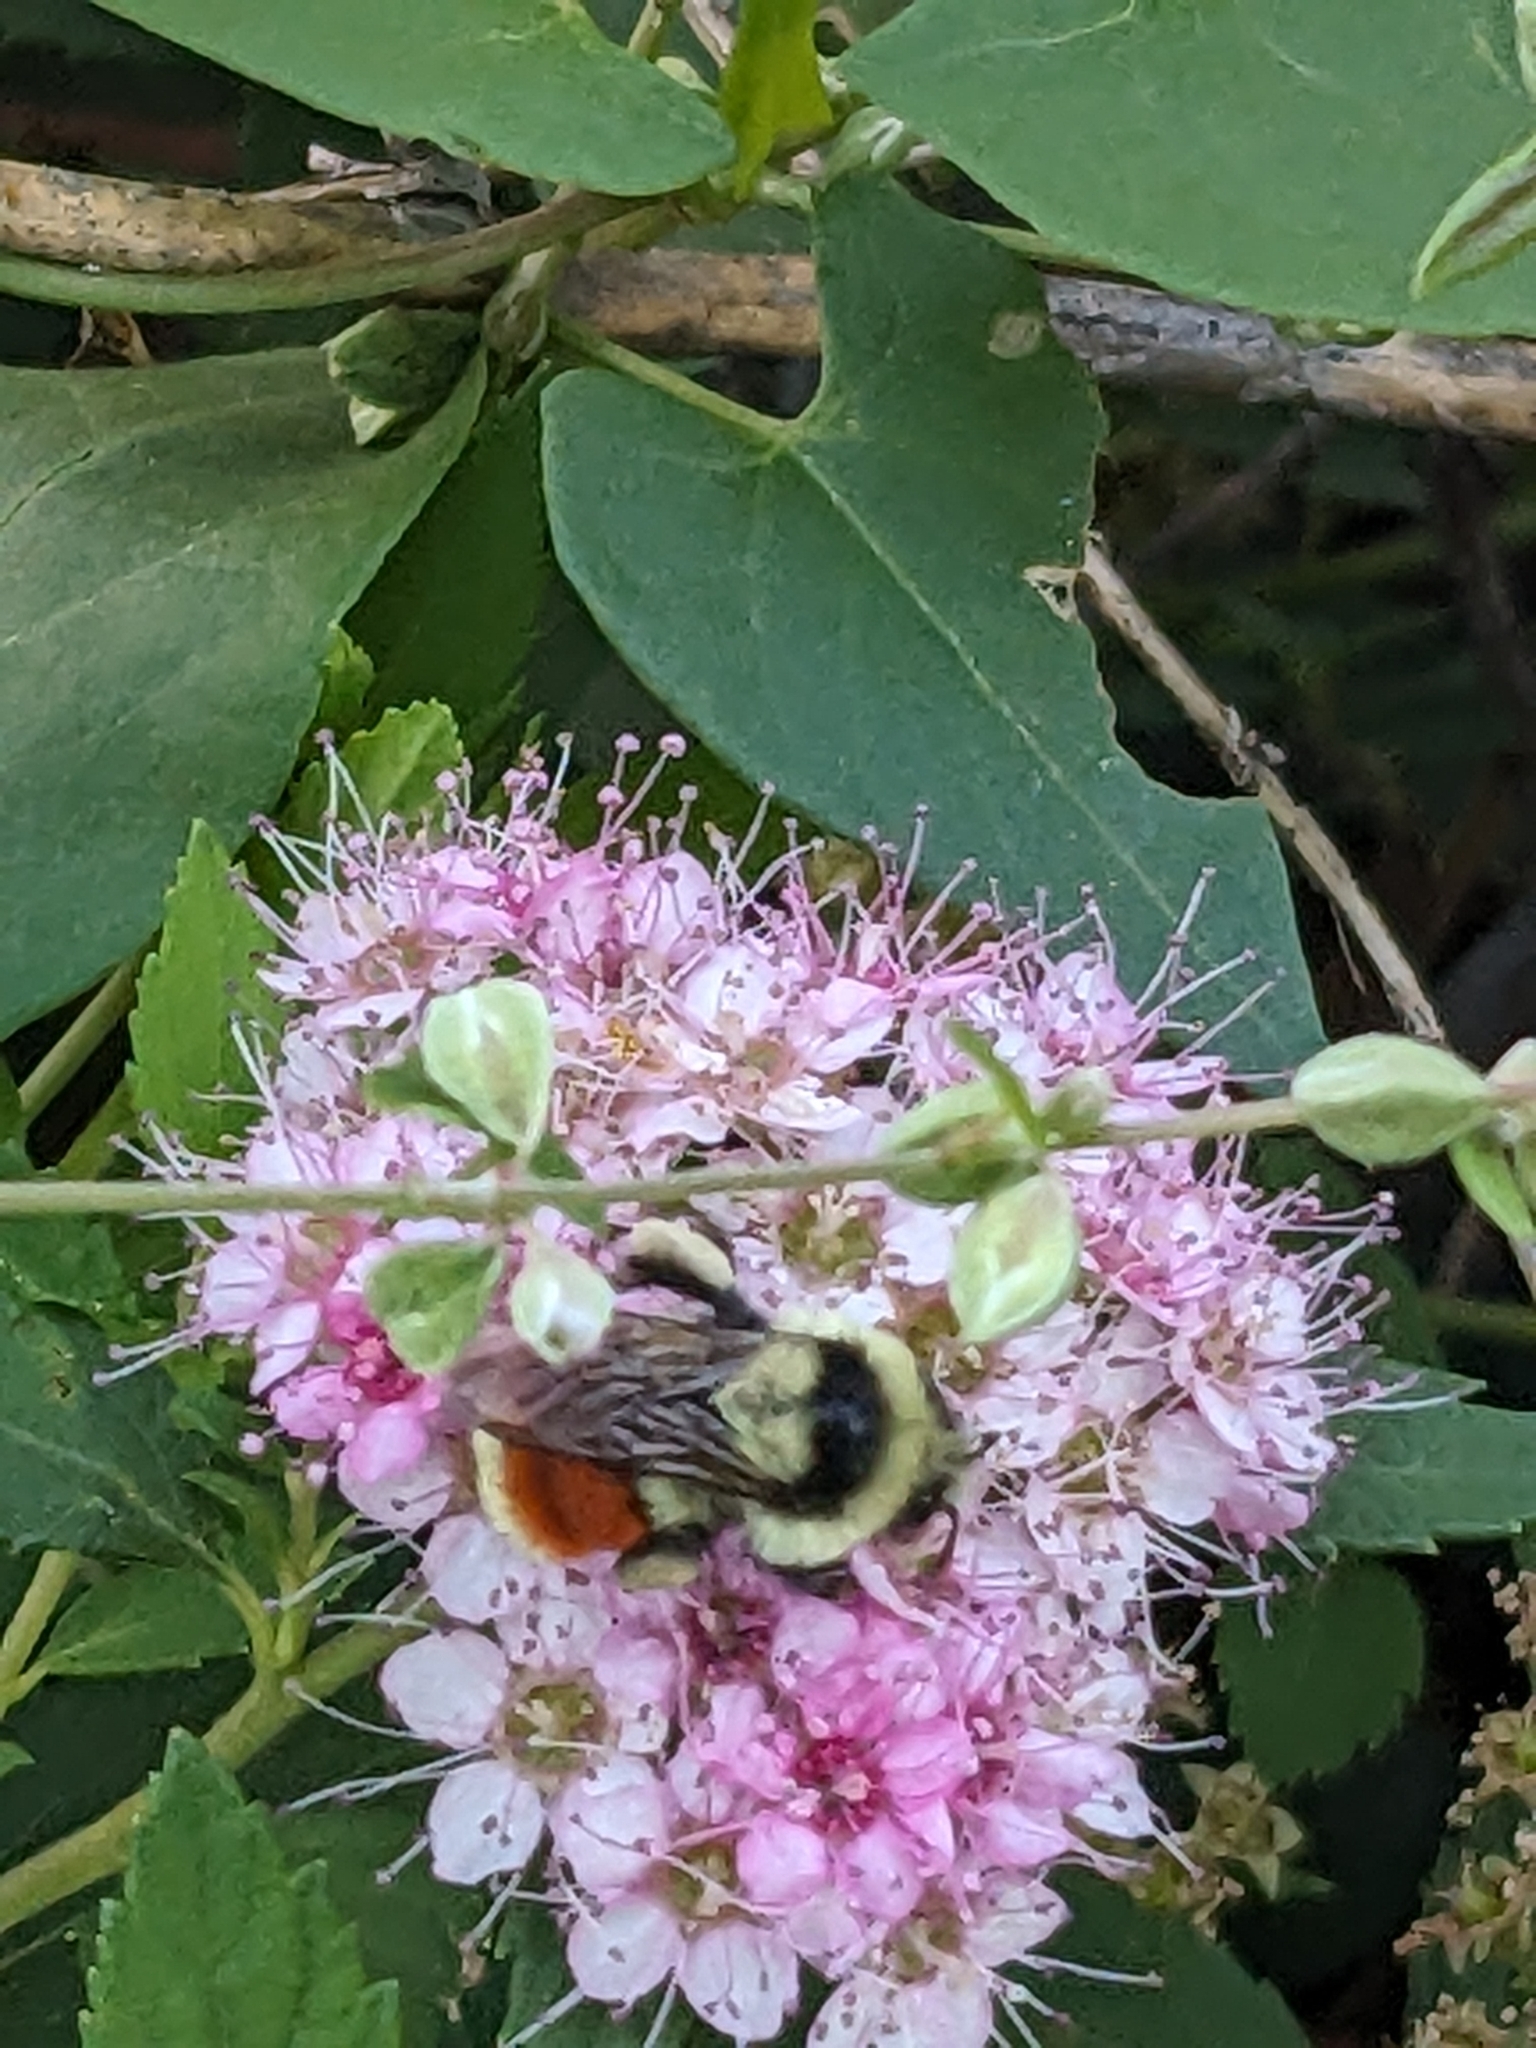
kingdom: Animalia
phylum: Arthropoda
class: Insecta
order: Hymenoptera
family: Apidae
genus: Bombus
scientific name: Bombus huntii
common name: Hunt bumble bee
